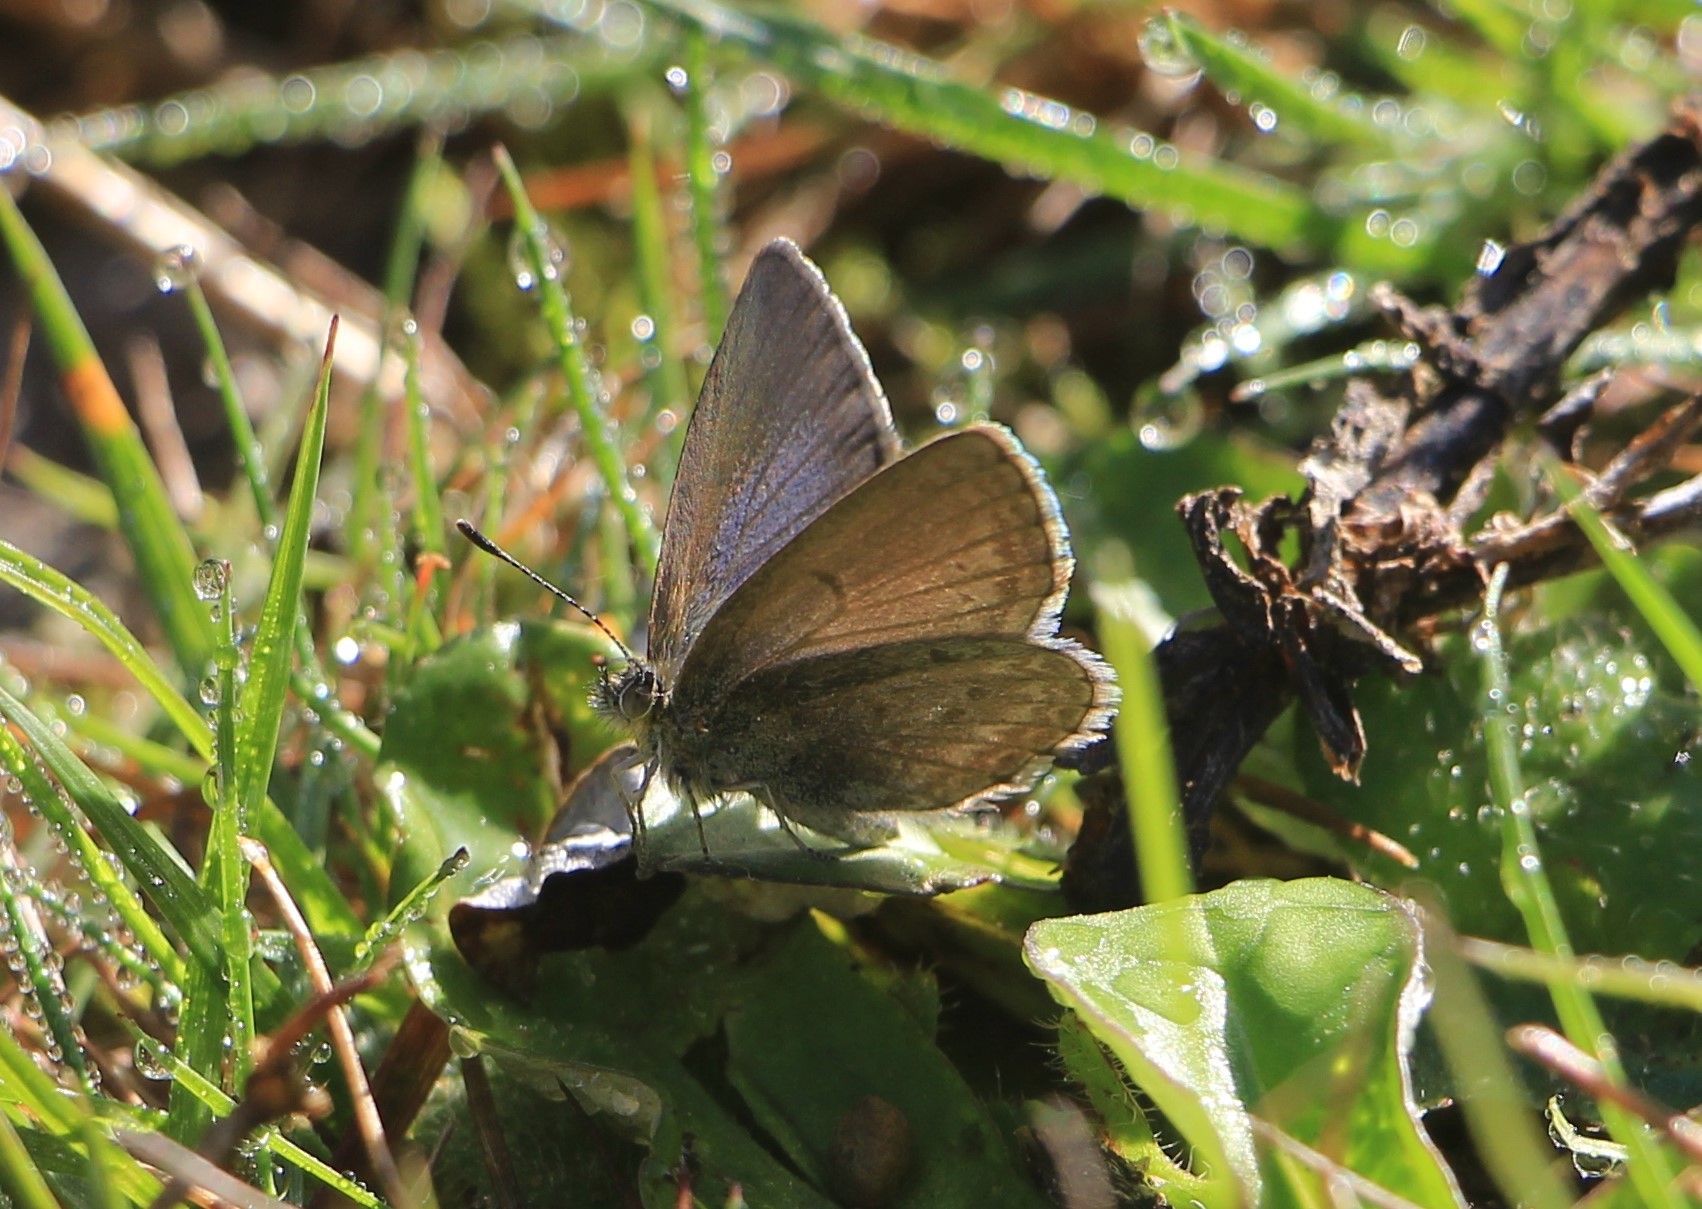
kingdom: Animalia
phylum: Arthropoda
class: Insecta
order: Lepidoptera
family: Lycaenidae
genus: Zizina
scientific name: Zizina labradus
